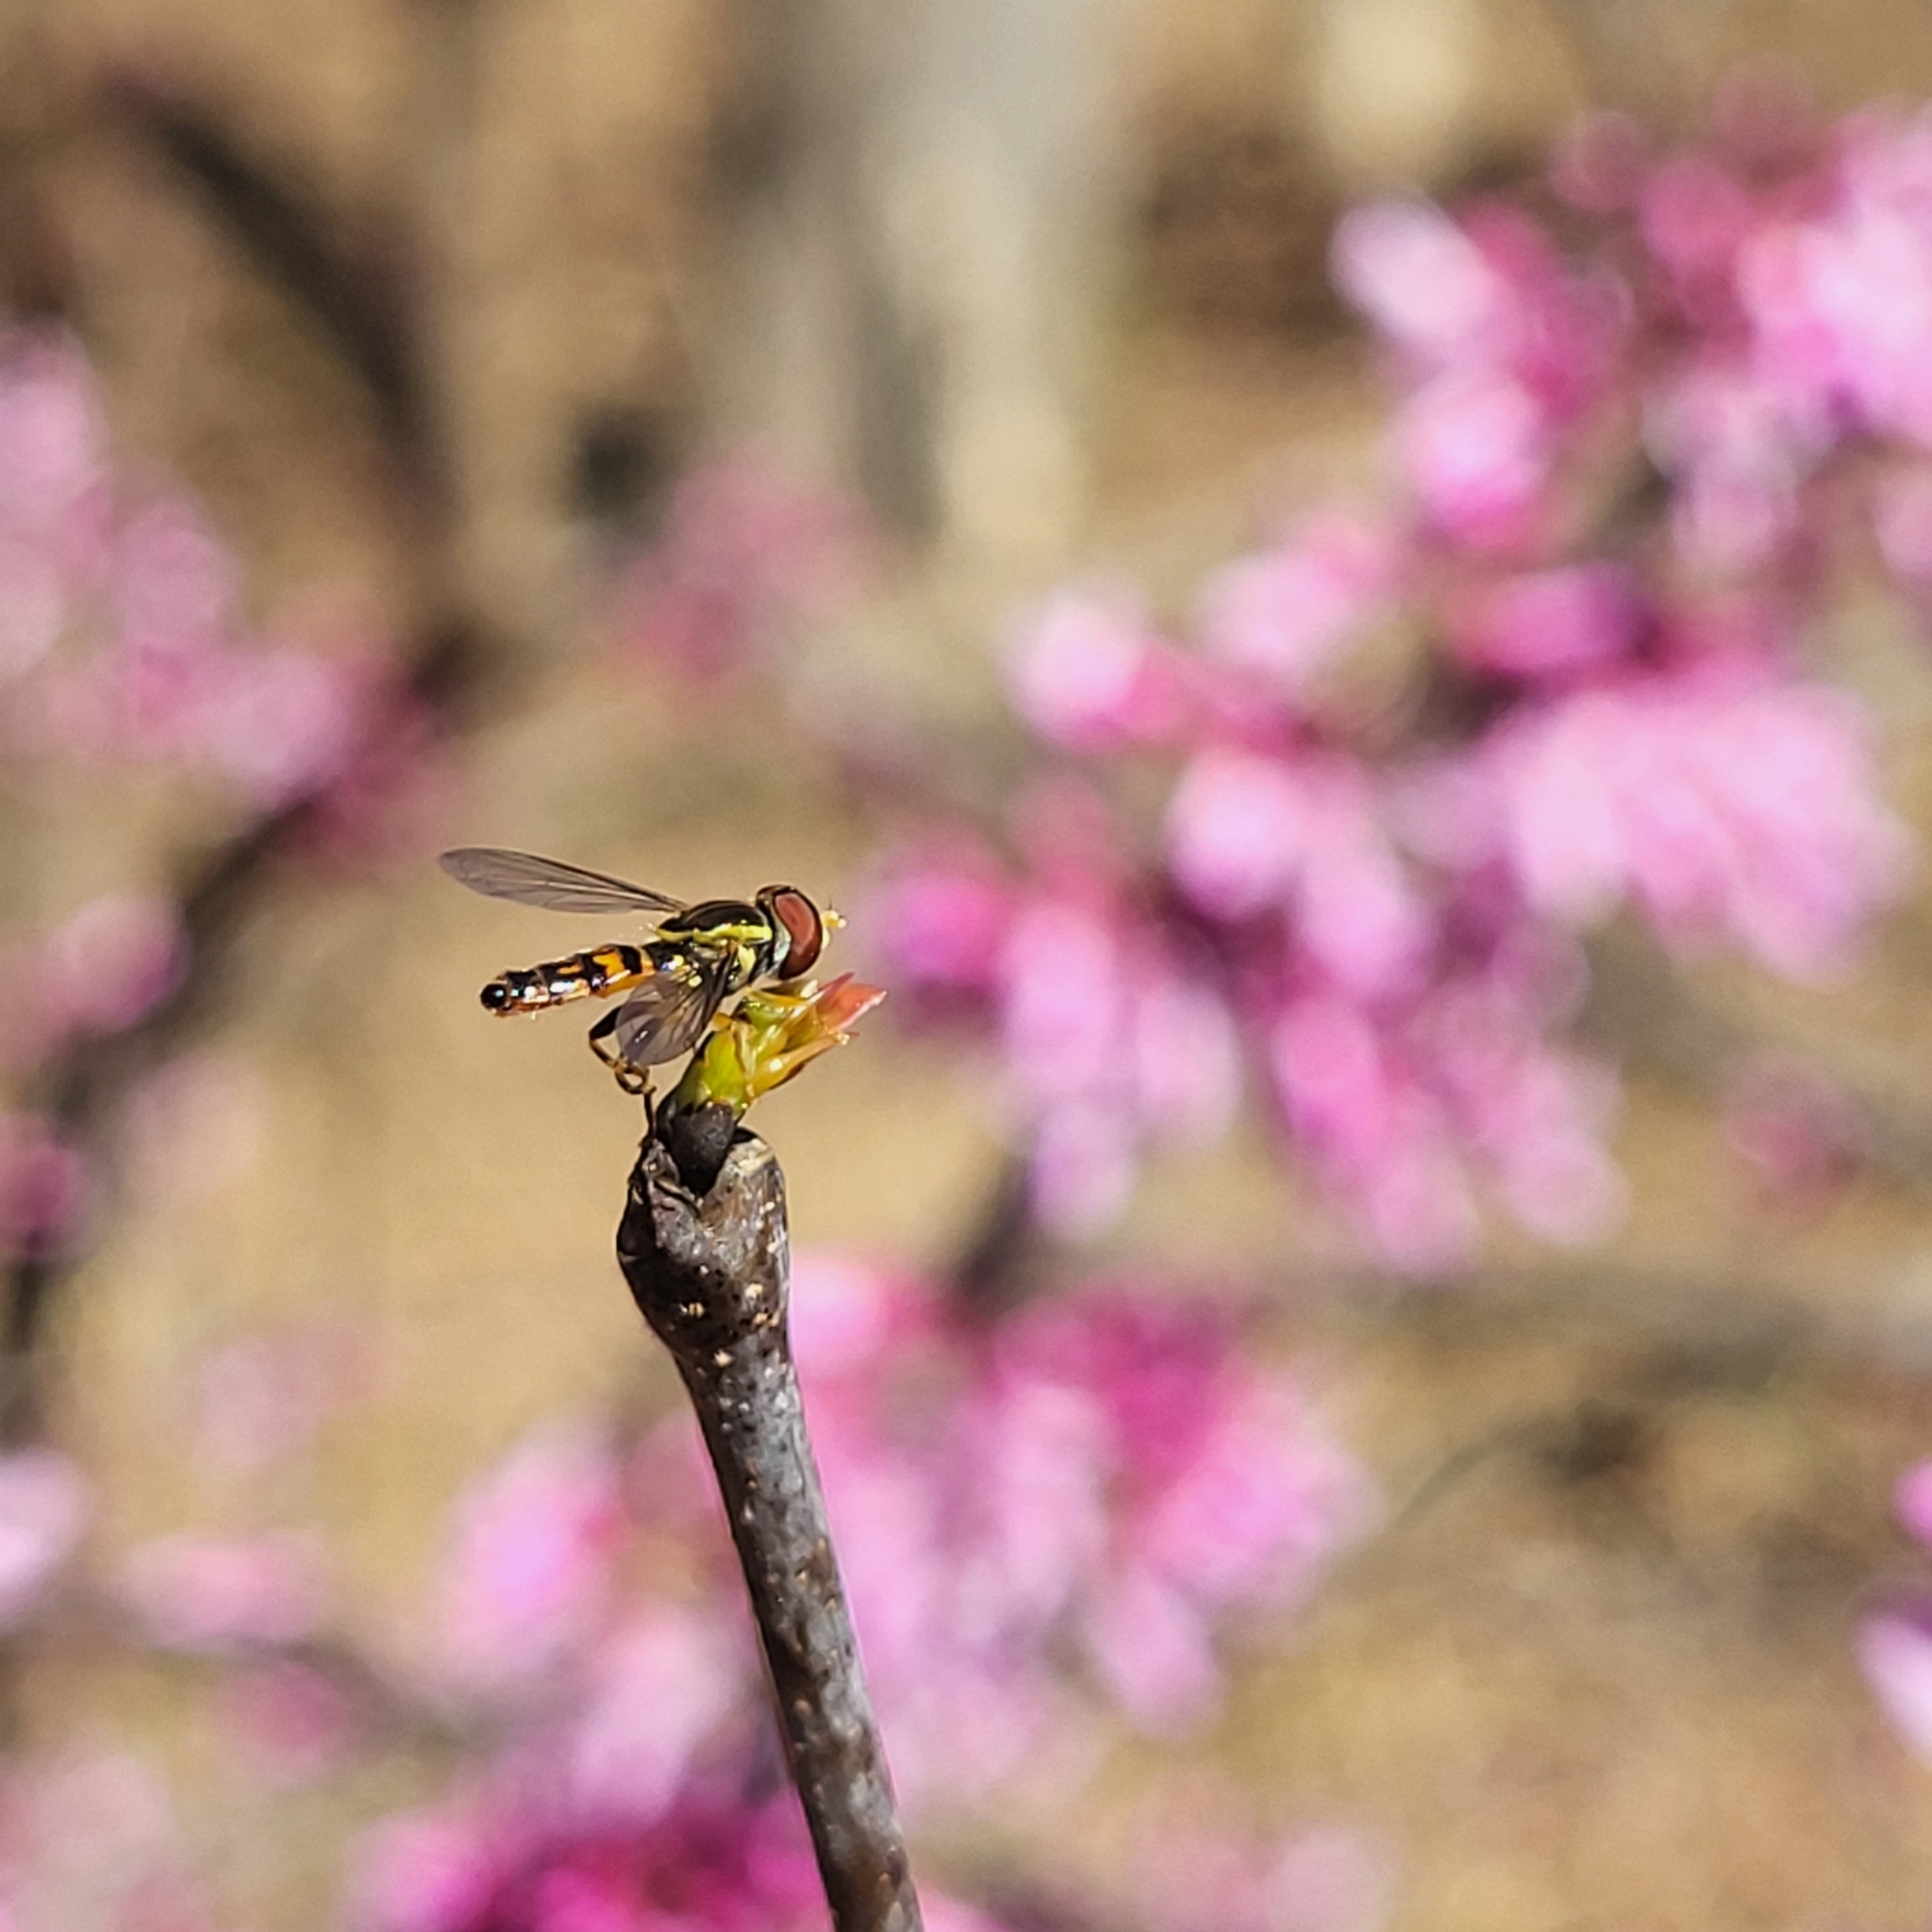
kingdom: Animalia
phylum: Arthropoda
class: Insecta
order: Diptera
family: Syrphidae
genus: Toxomerus
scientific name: Toxomerus geminatus
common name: Eastern calligrapher
